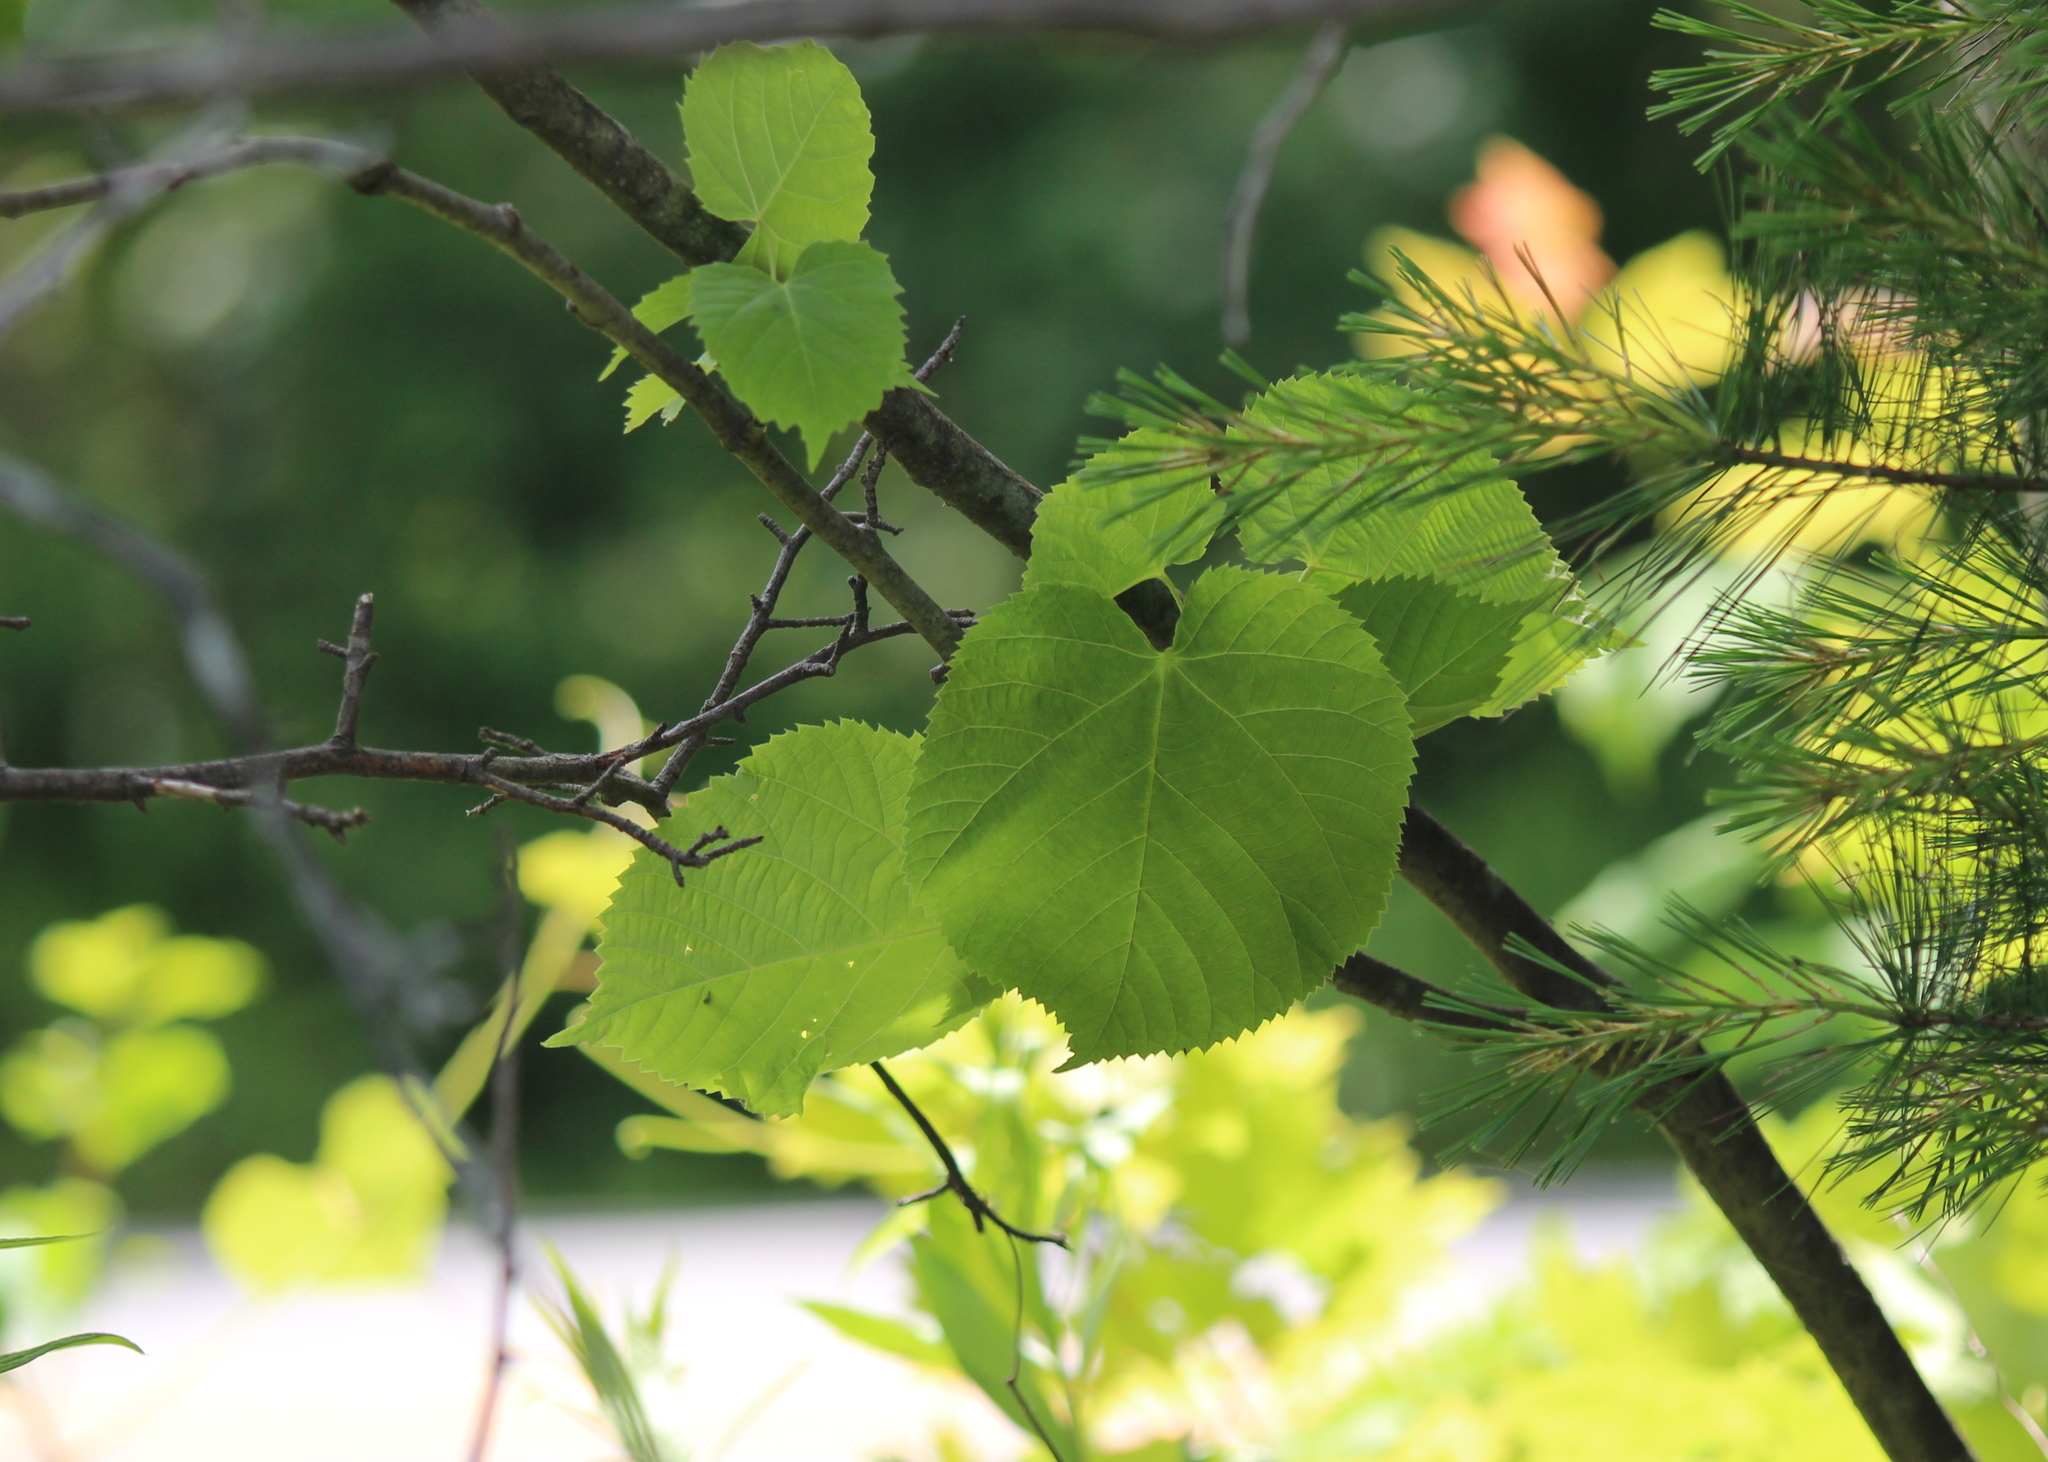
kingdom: Plantae
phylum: Tracheophyta
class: Magnoliopsida
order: Malvales
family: Malvaceae
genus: Tilia
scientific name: Tilia americana
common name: Basswood
